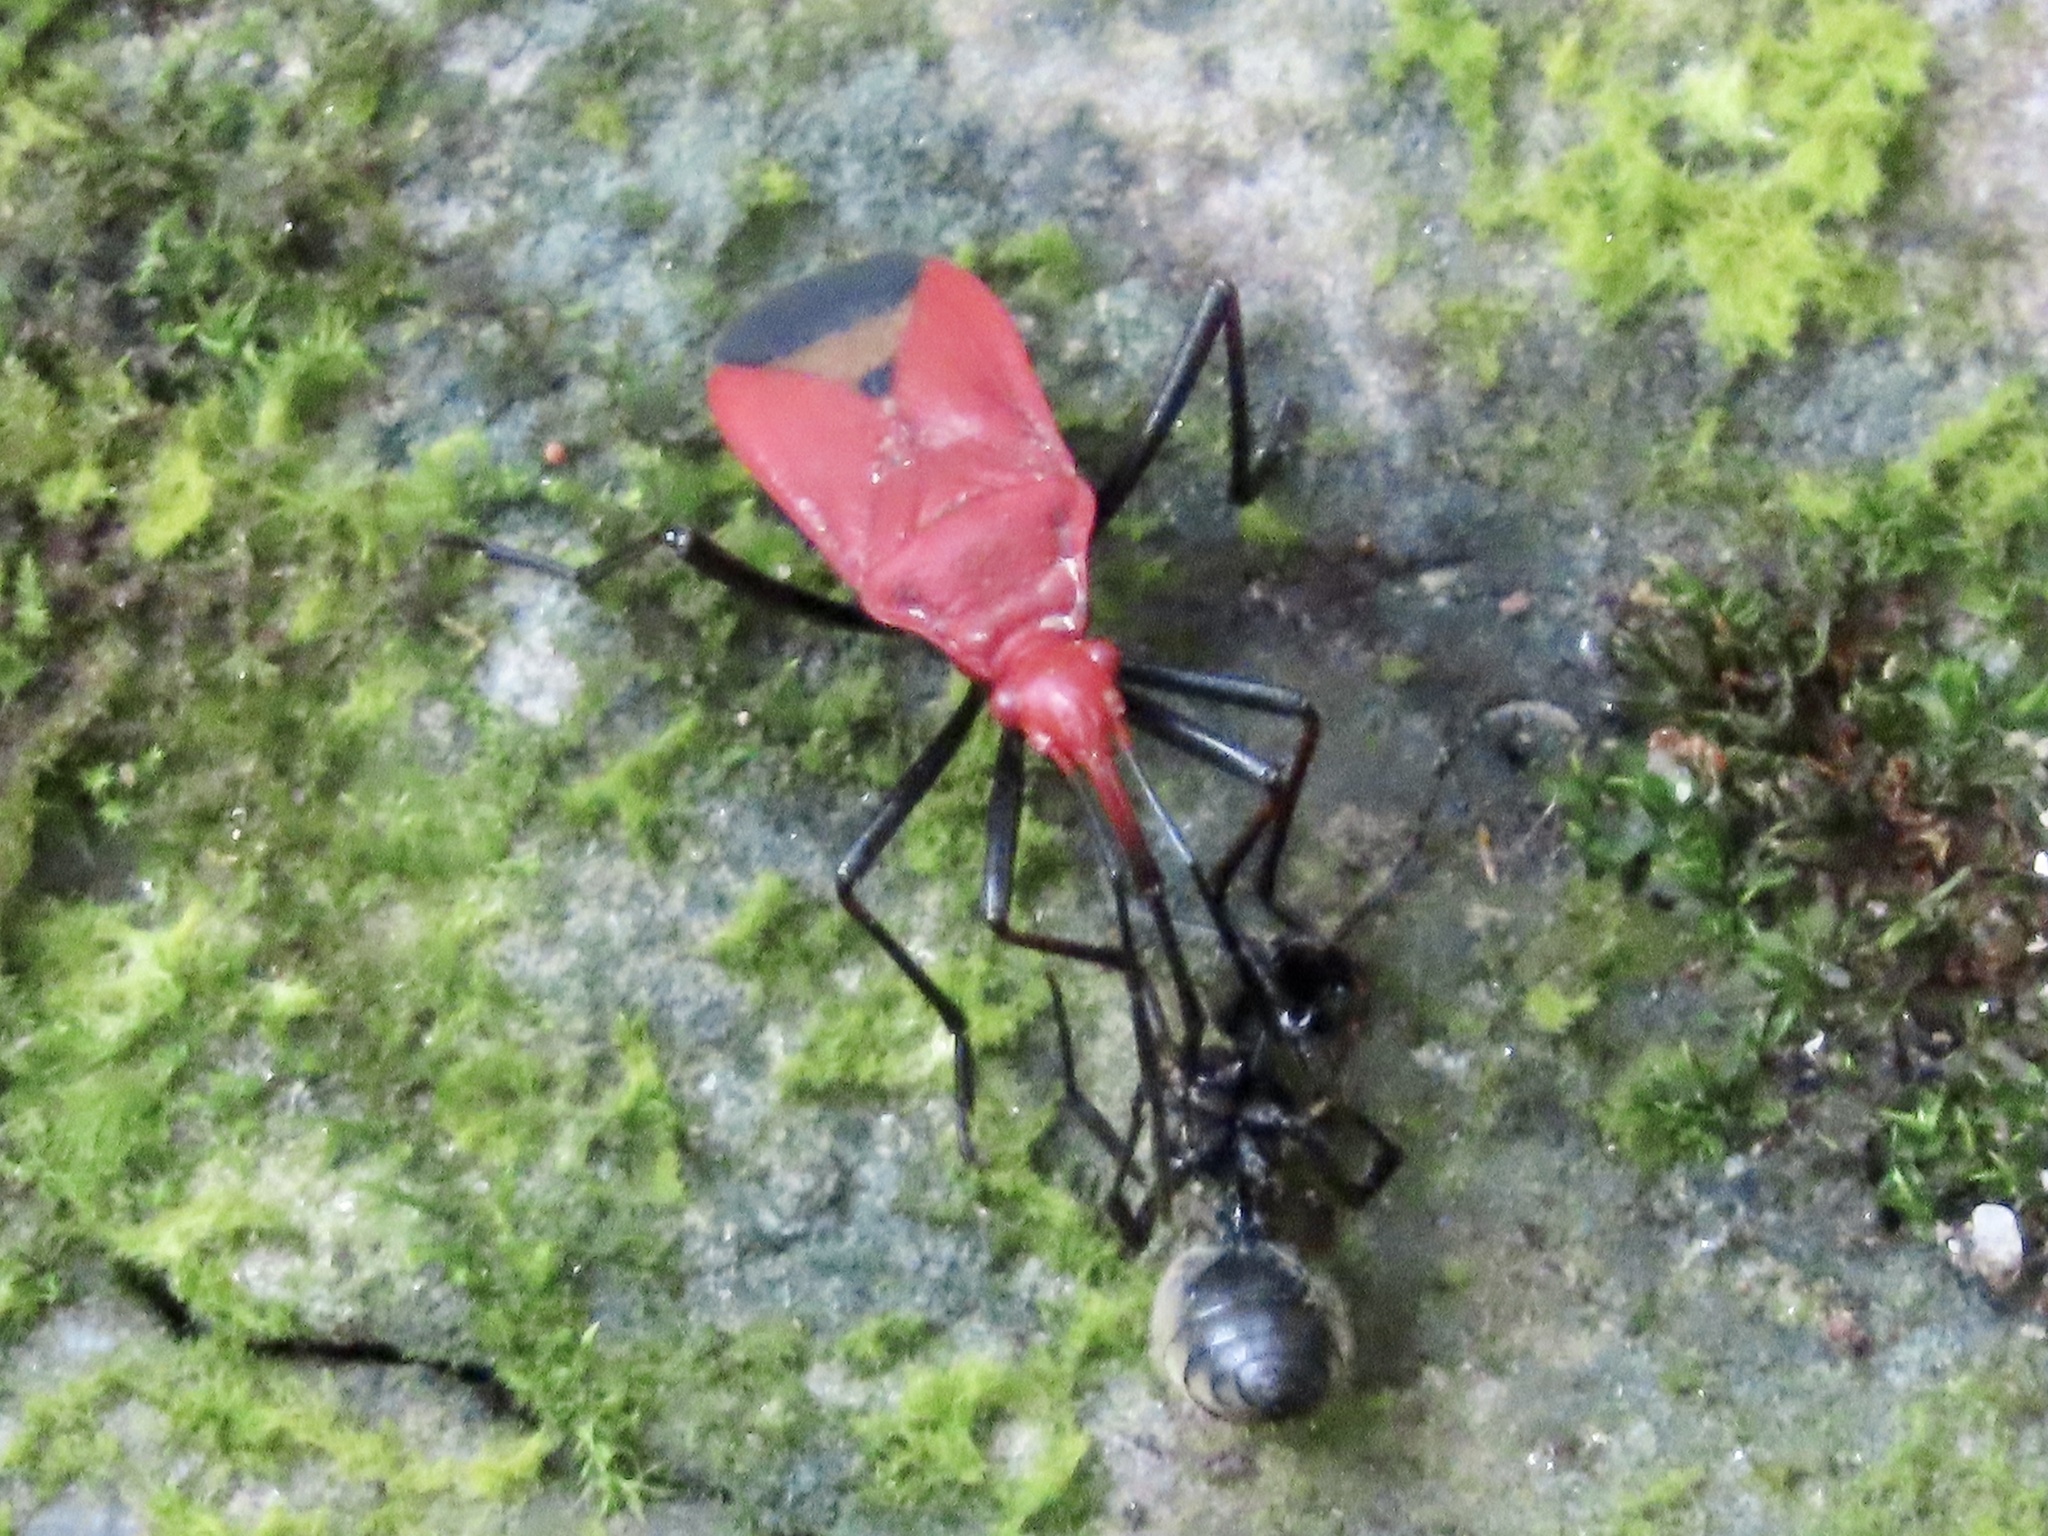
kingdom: Animalia
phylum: Arthropoda
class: Insecta
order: Hemiptera
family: Pyrrhocoridae
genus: Dindymus
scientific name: Dindymus
